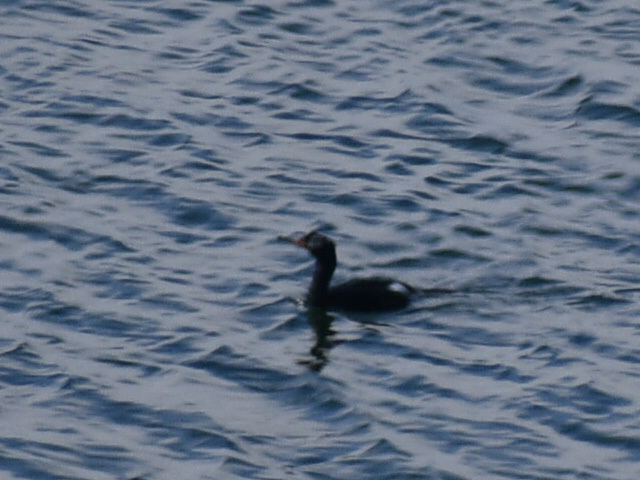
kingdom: Animalia
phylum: Chordata
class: Aves
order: Suliformes
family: Phalacrocoracidae
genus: Phalacrocorax
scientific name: Phalacrocorax pelagicus
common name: Pelagic cormorant
